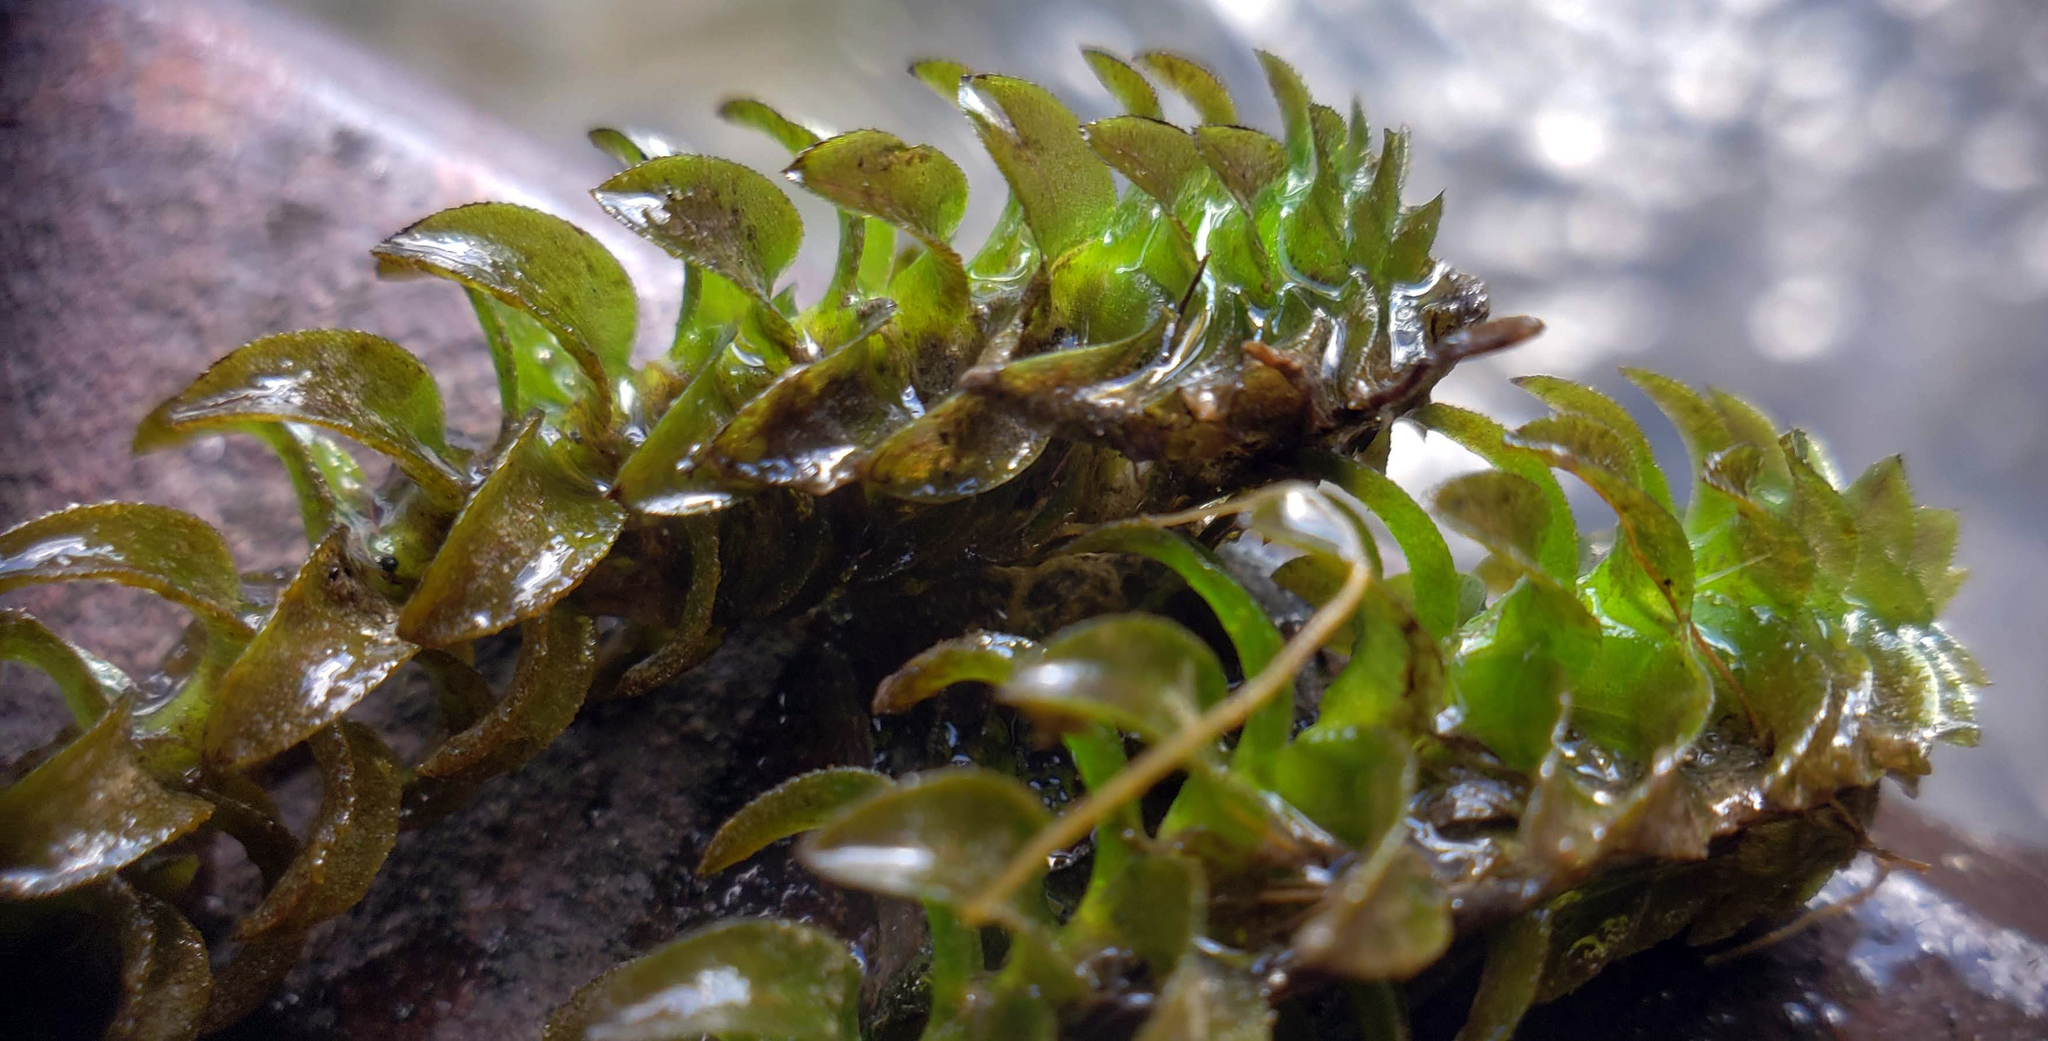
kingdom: Plantae
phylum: Tracheophyta
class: Liliopsida
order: Alismatales
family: Hydrocharitaceae
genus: Elodea
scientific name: Elodea canadensis
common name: Canadian waterweed
